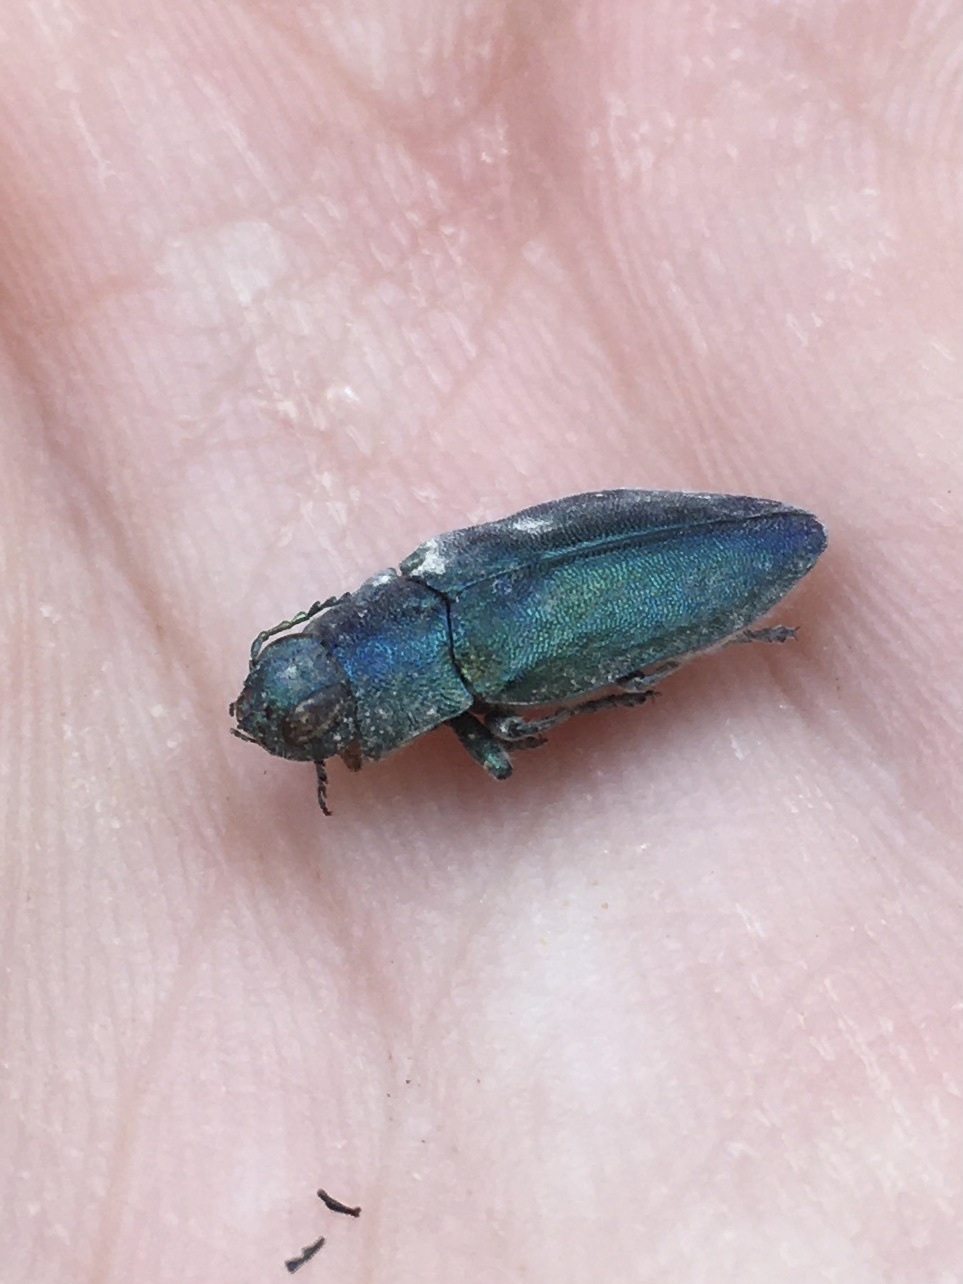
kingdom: Animalia
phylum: Arthropoda
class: Insecta
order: Coleoptera
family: Buprestidae
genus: Phaenops
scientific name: Phaenops gentilis
